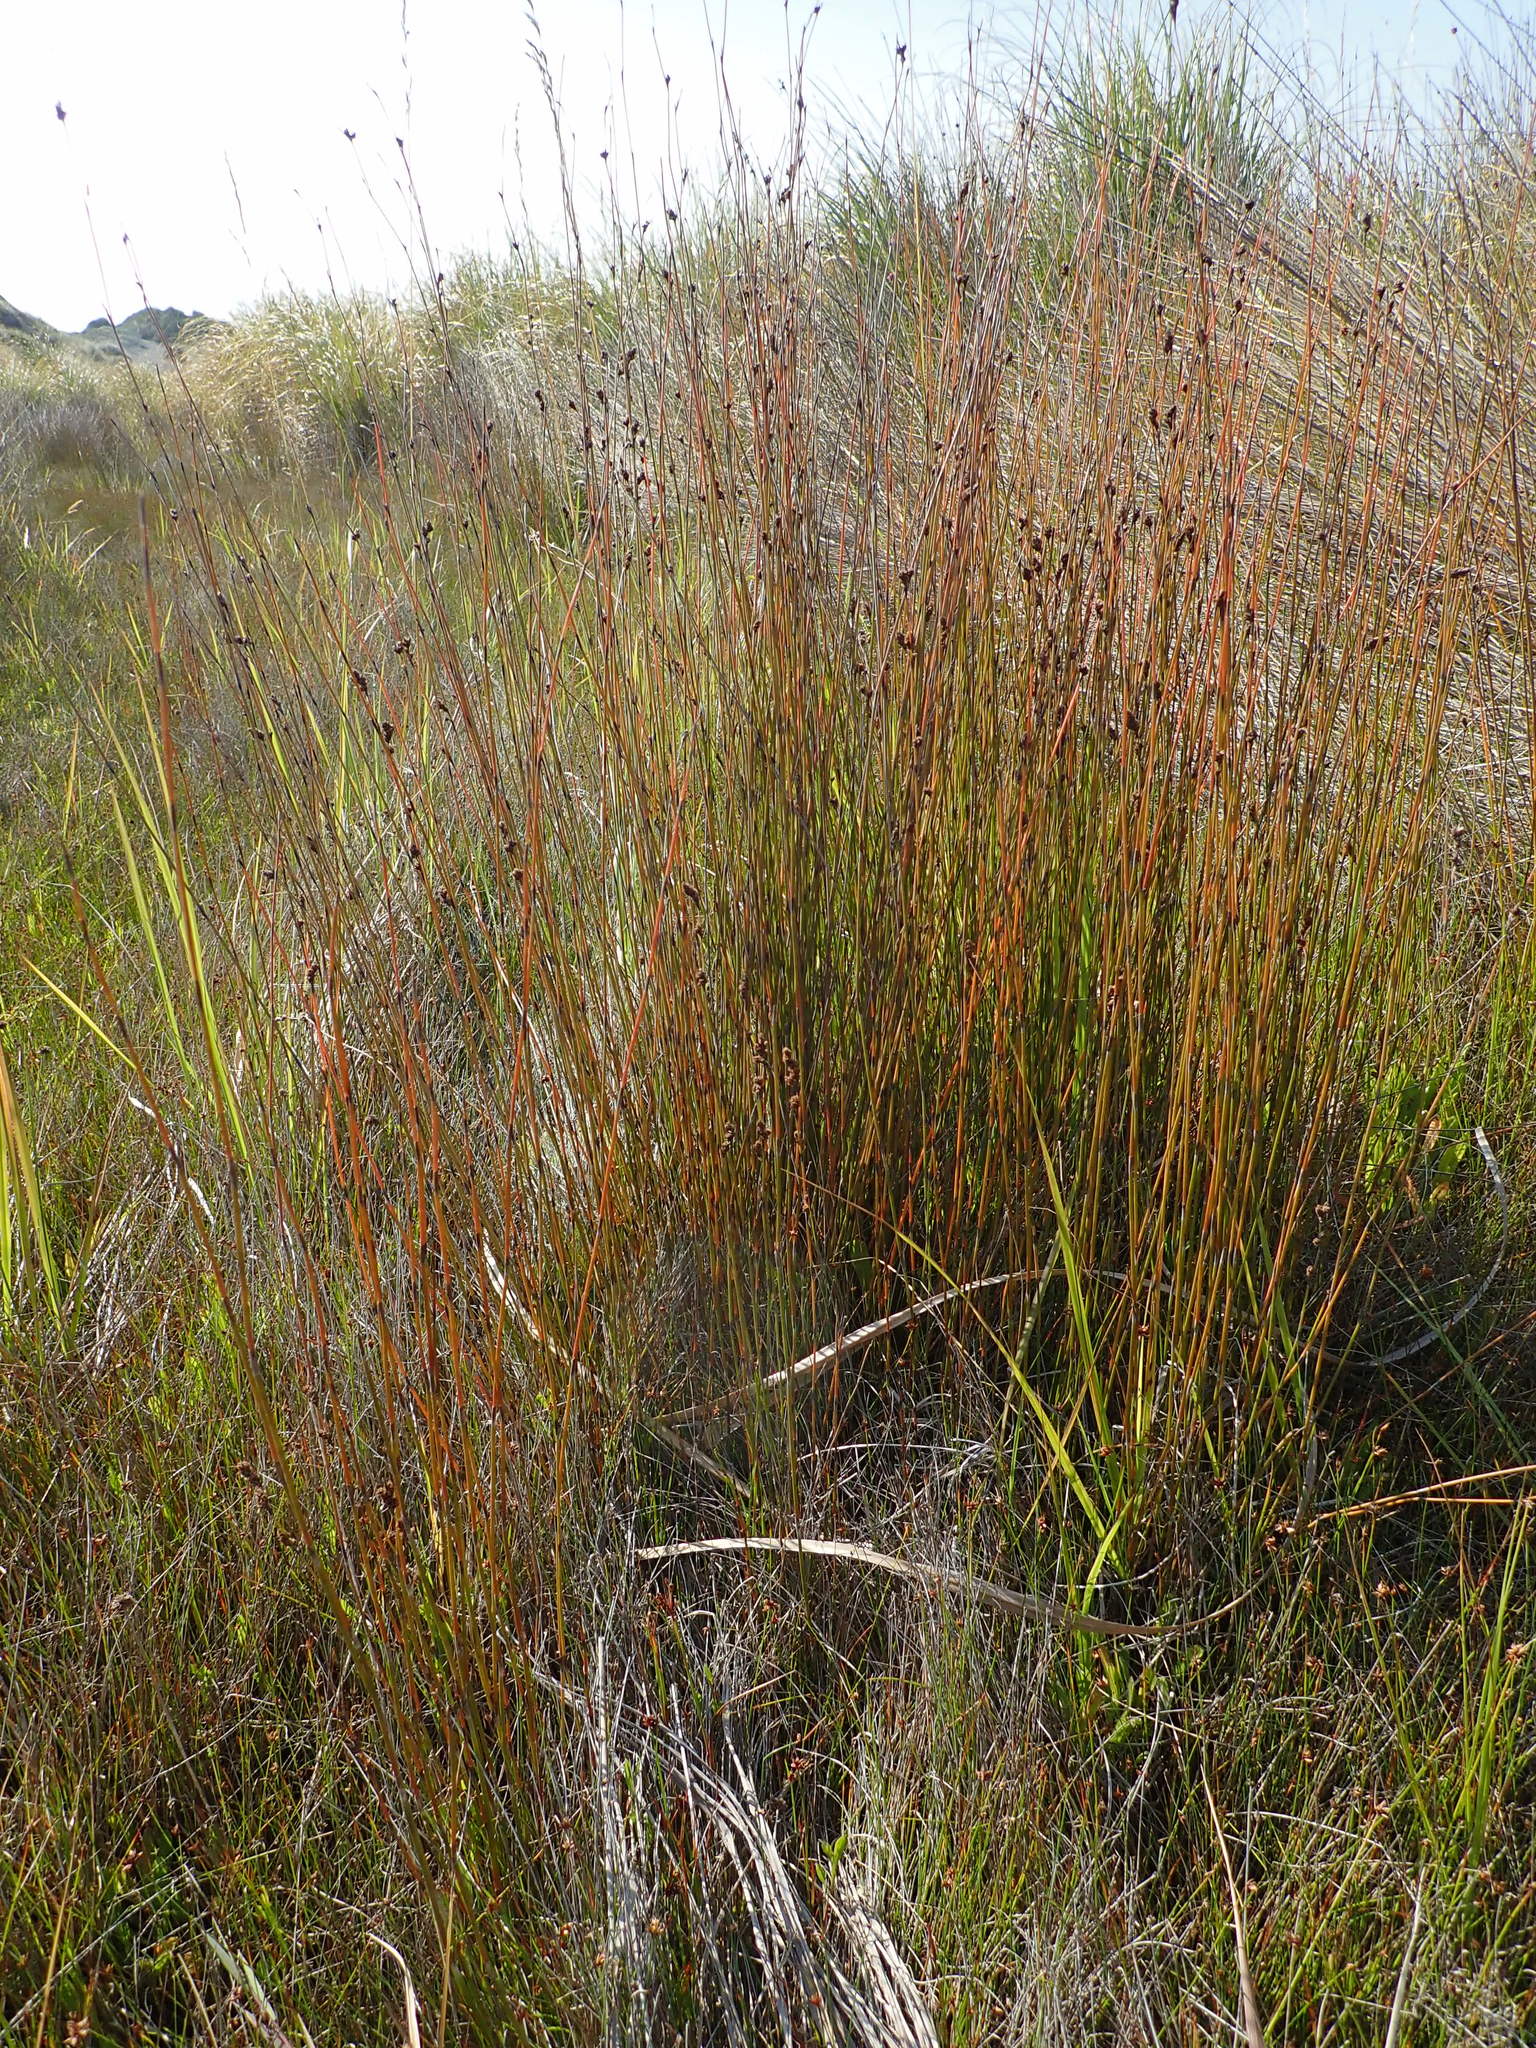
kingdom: Plantae
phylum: Tracheophyta
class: Liliopsida
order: Poales
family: Restionaceae
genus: Apodasmia
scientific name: Apodasmia similis
